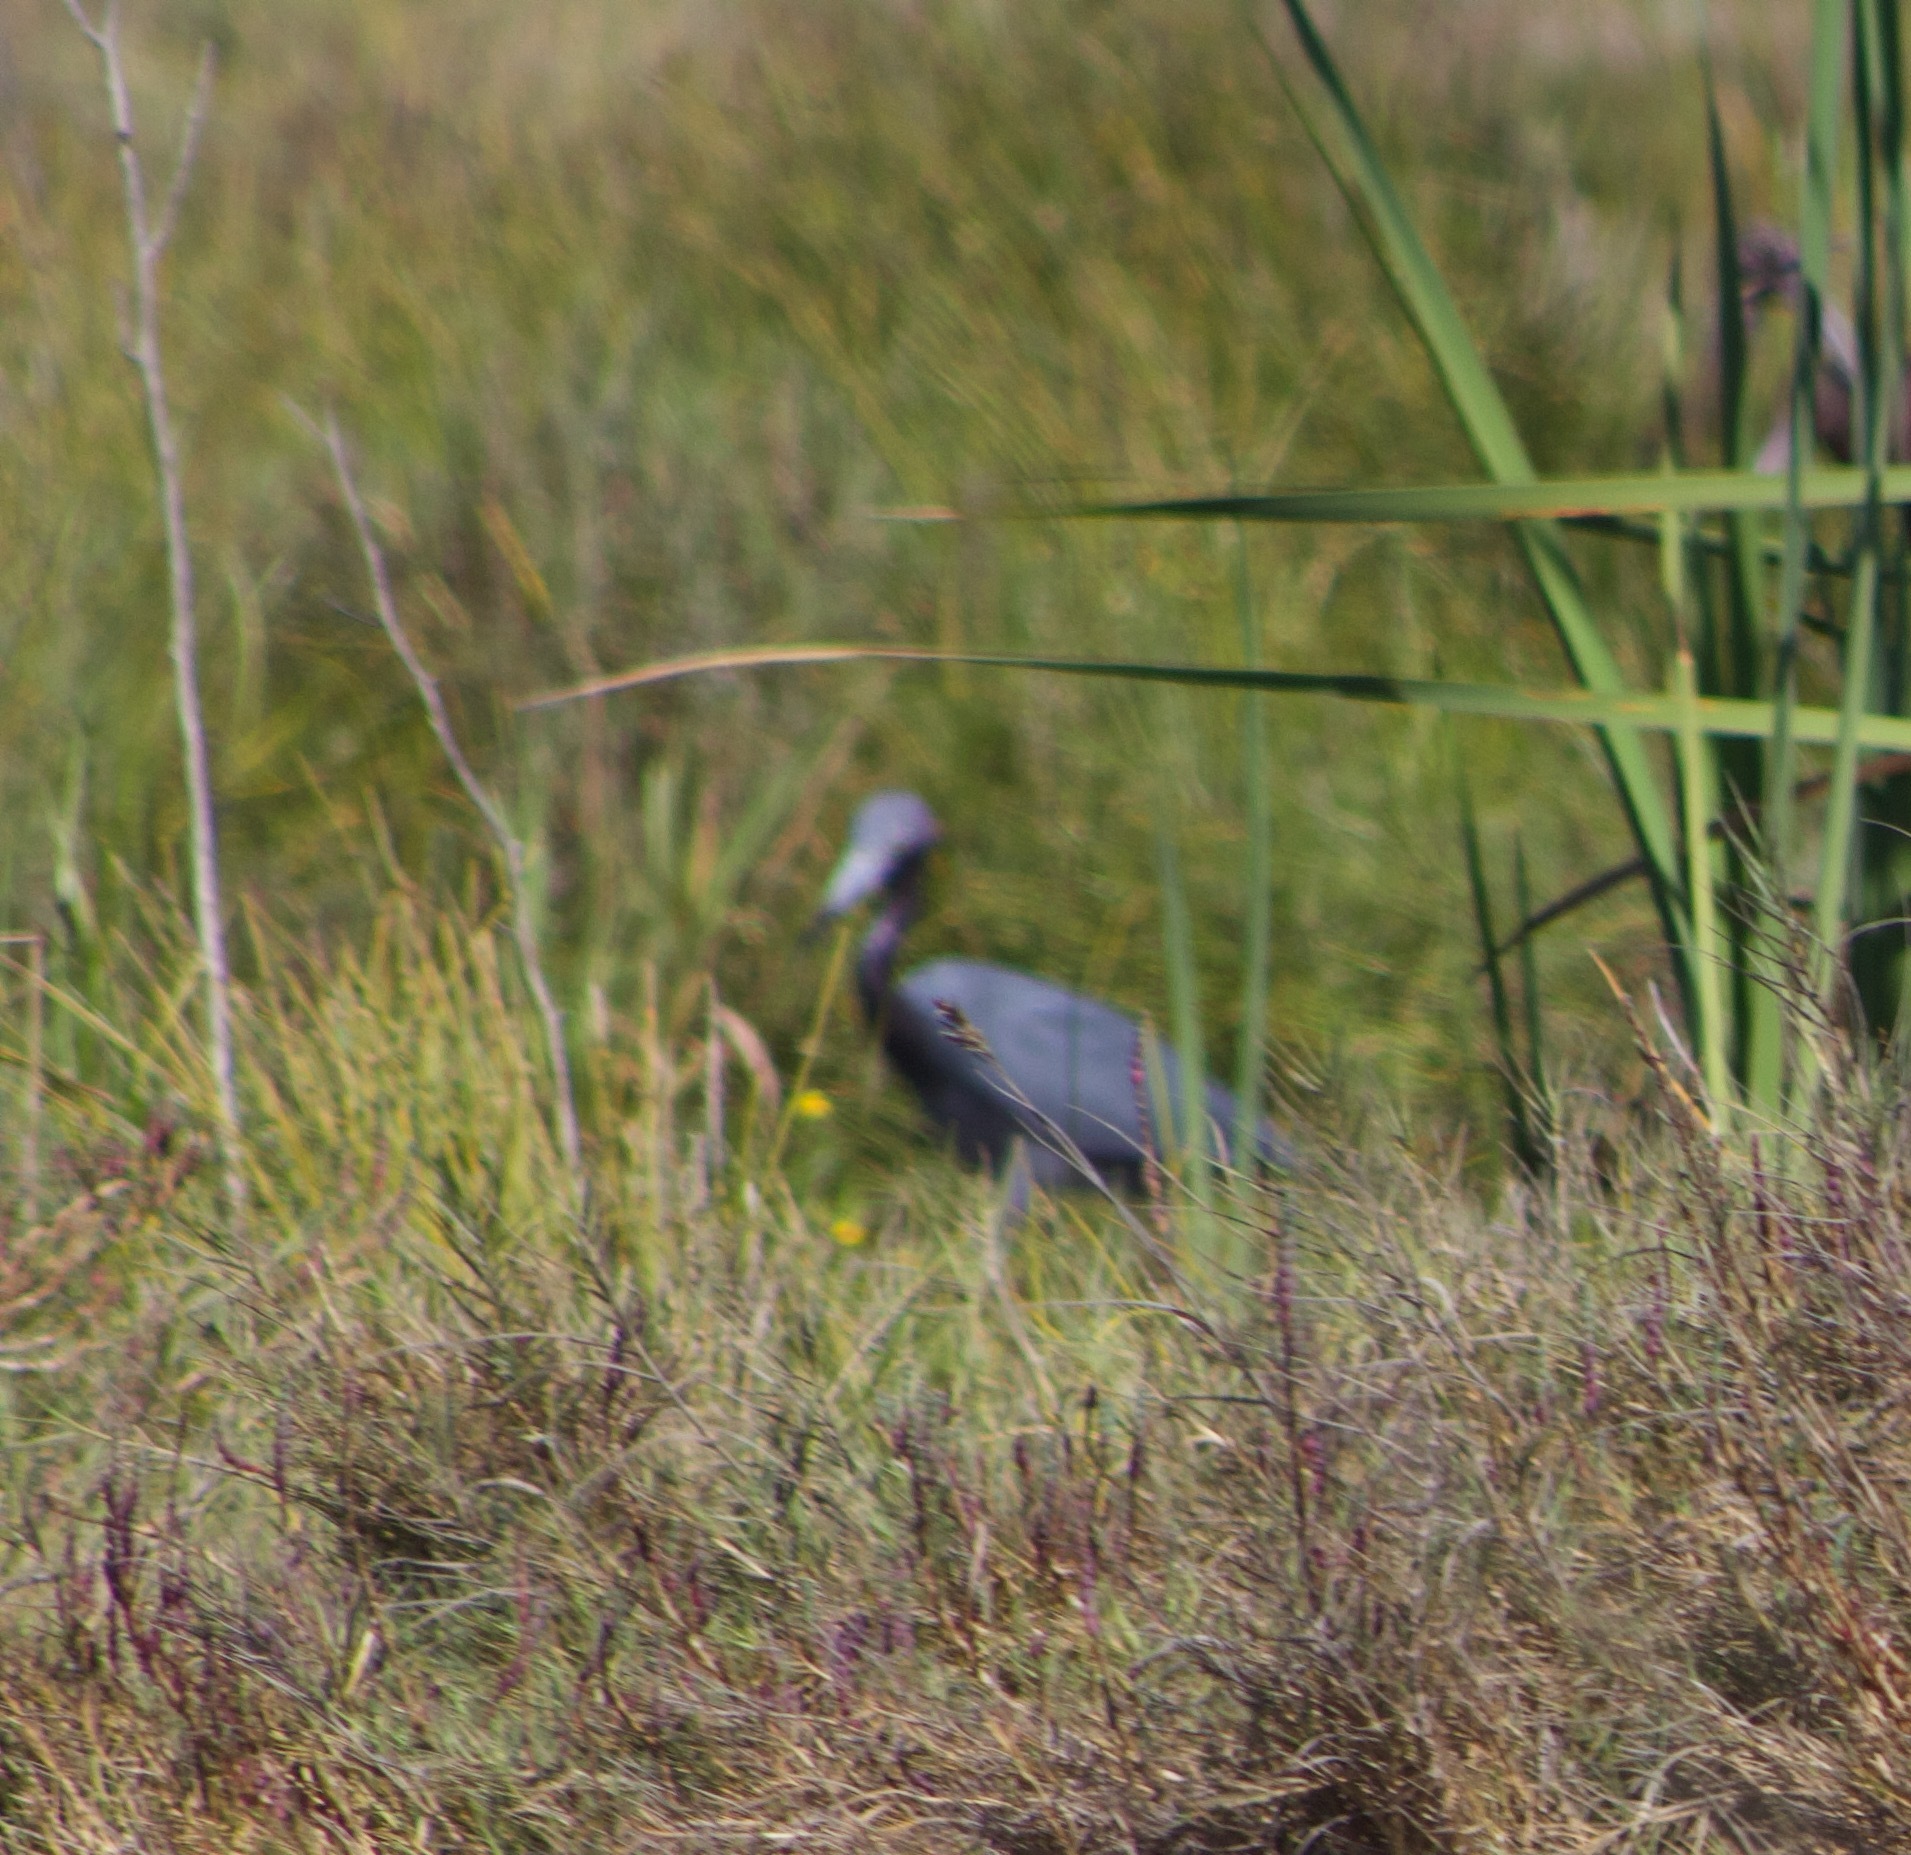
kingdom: Animalia
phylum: Chordata
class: Aves
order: Pelecaniformes
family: Ardeidae
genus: Egretta
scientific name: Egretta caerulea
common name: Little blue heron
